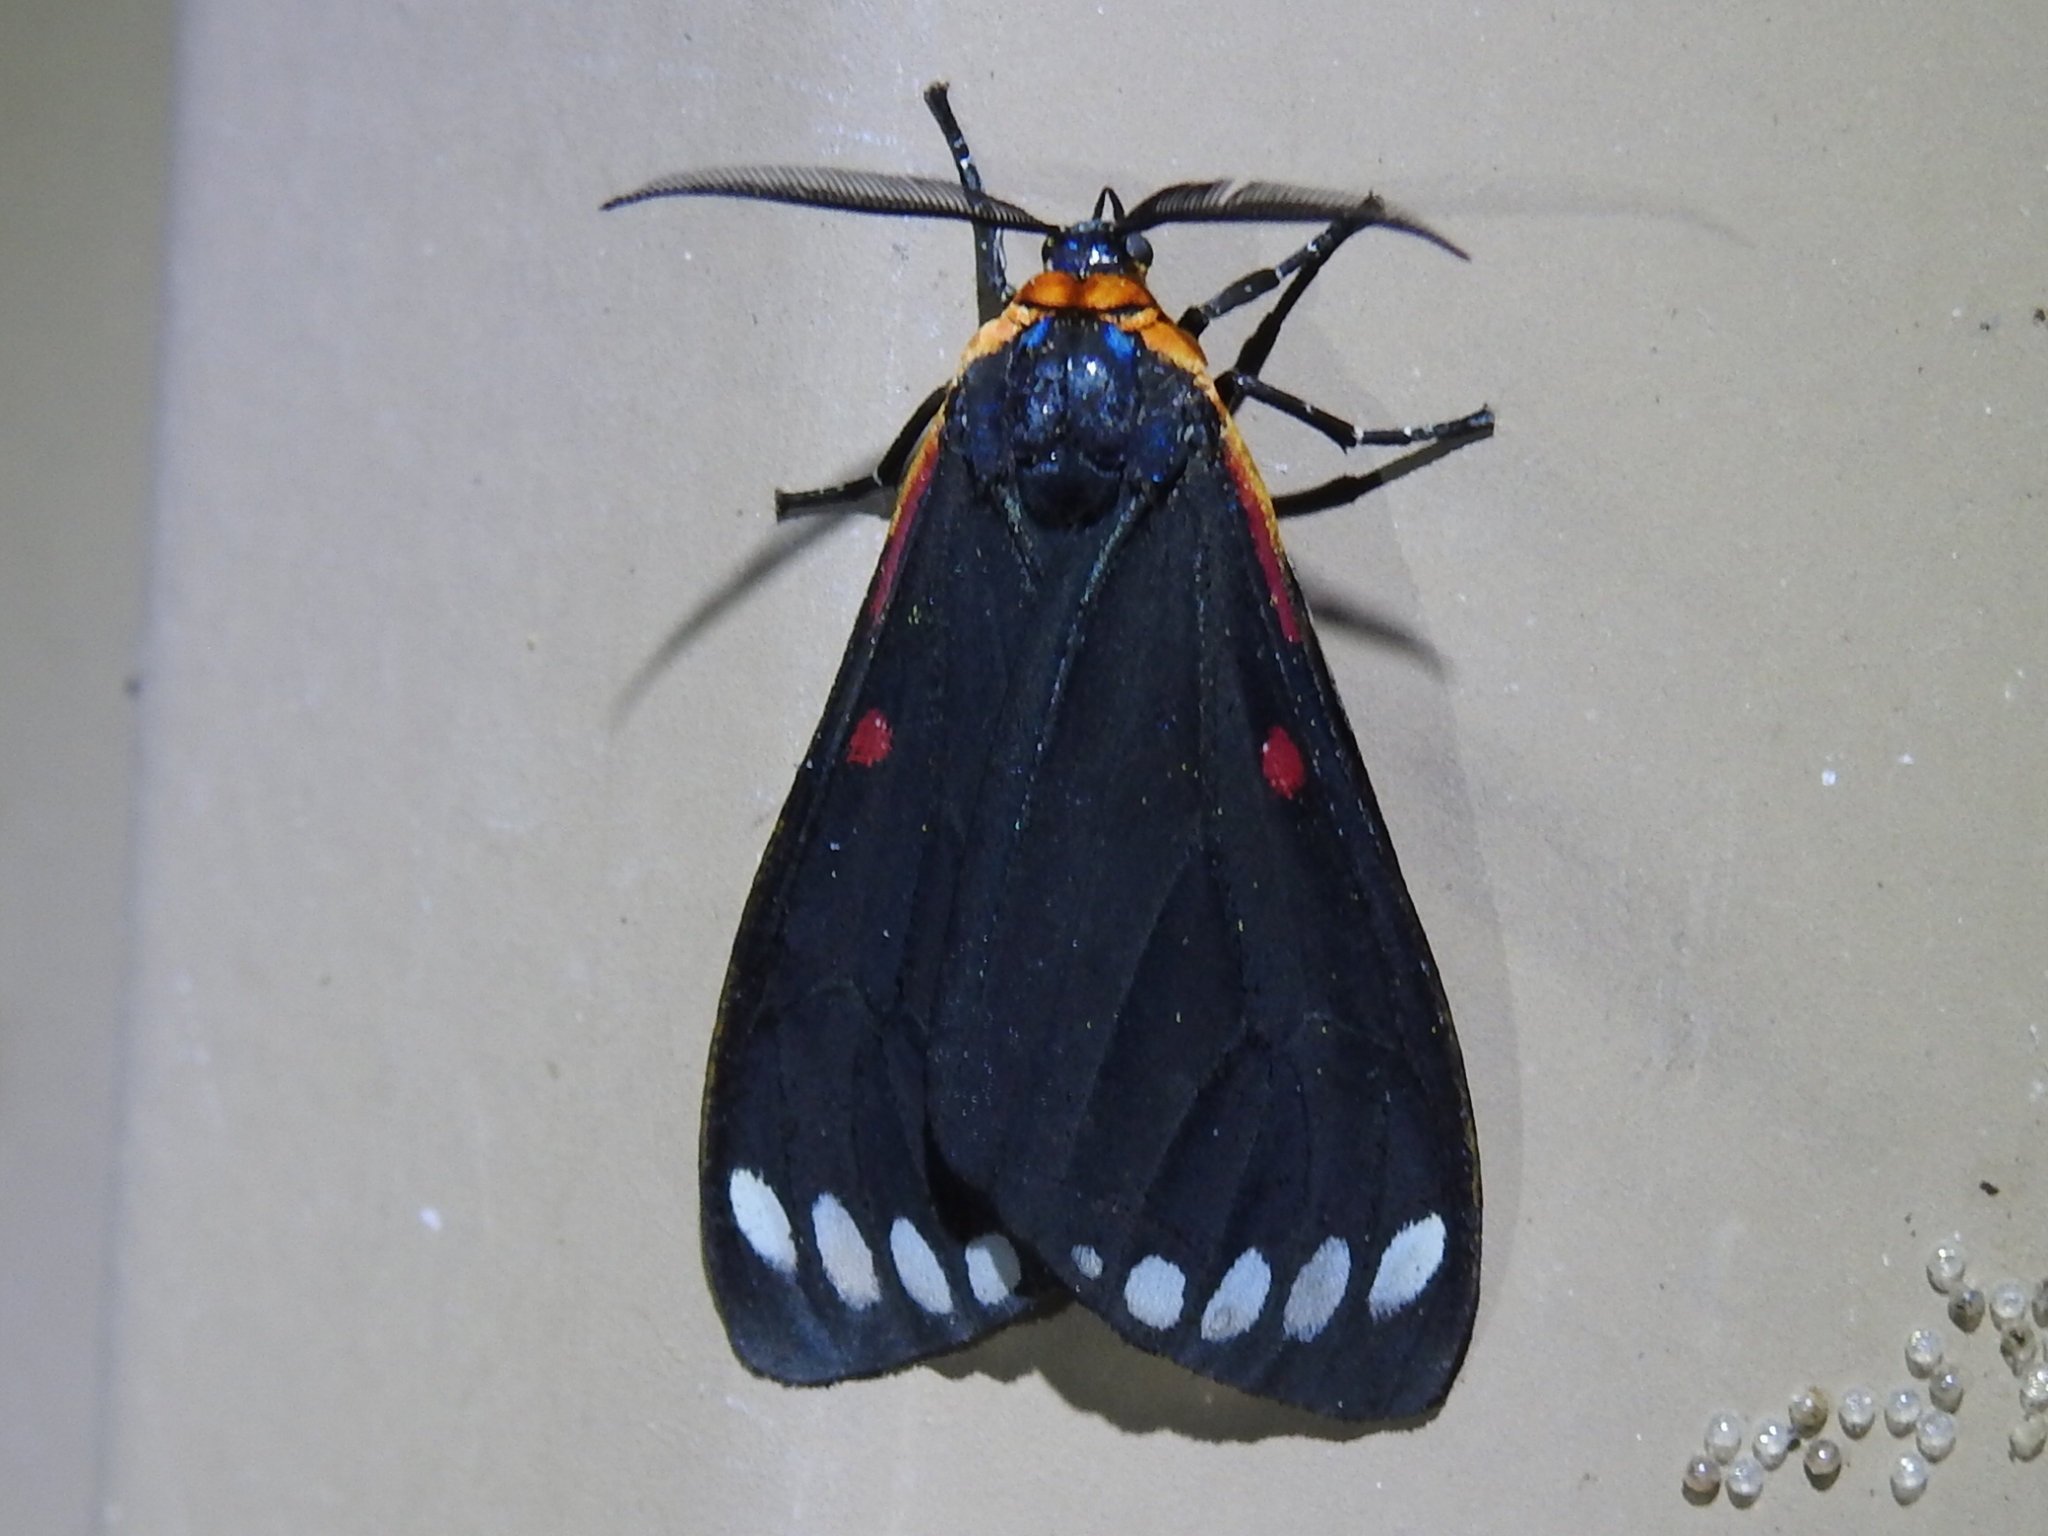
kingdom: Animalia
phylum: Arthropoda
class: Insecta
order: Lepidoptera
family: Erebidae
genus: Phaloesia
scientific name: Phaloesia saucia
